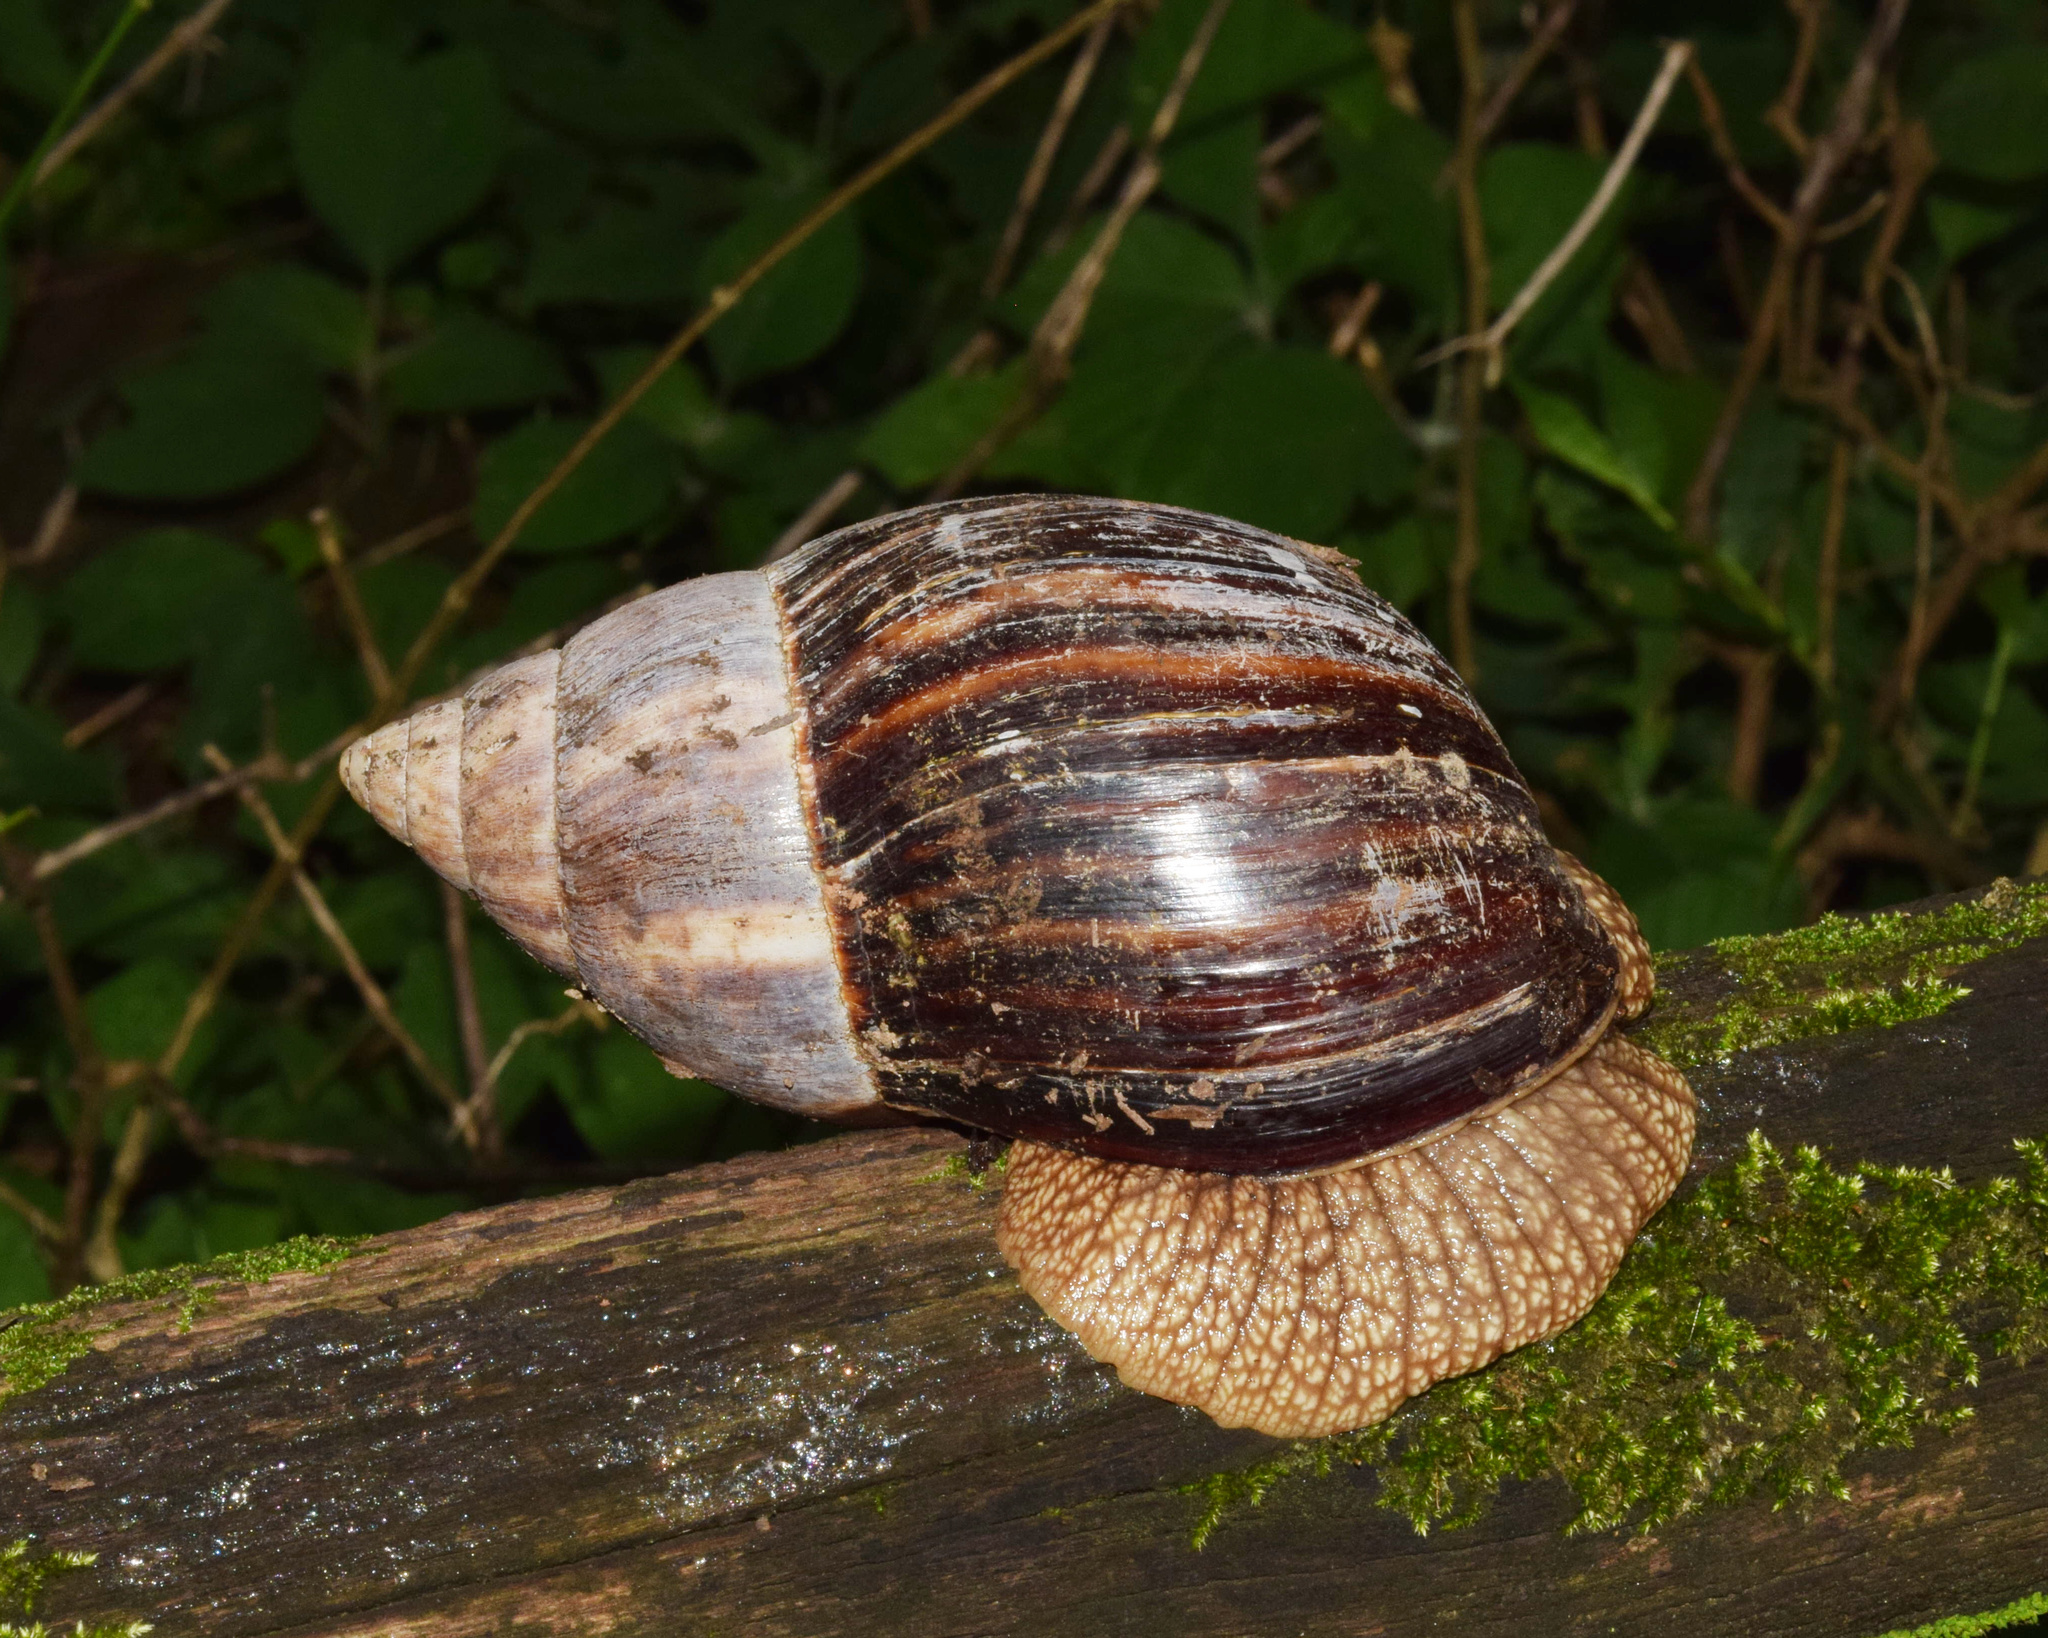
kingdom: Animalia
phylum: Mollusca
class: Gastropoda
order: Stylommatophora
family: Achatinidae
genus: Lissachatina
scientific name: Lissachatina immaculata
